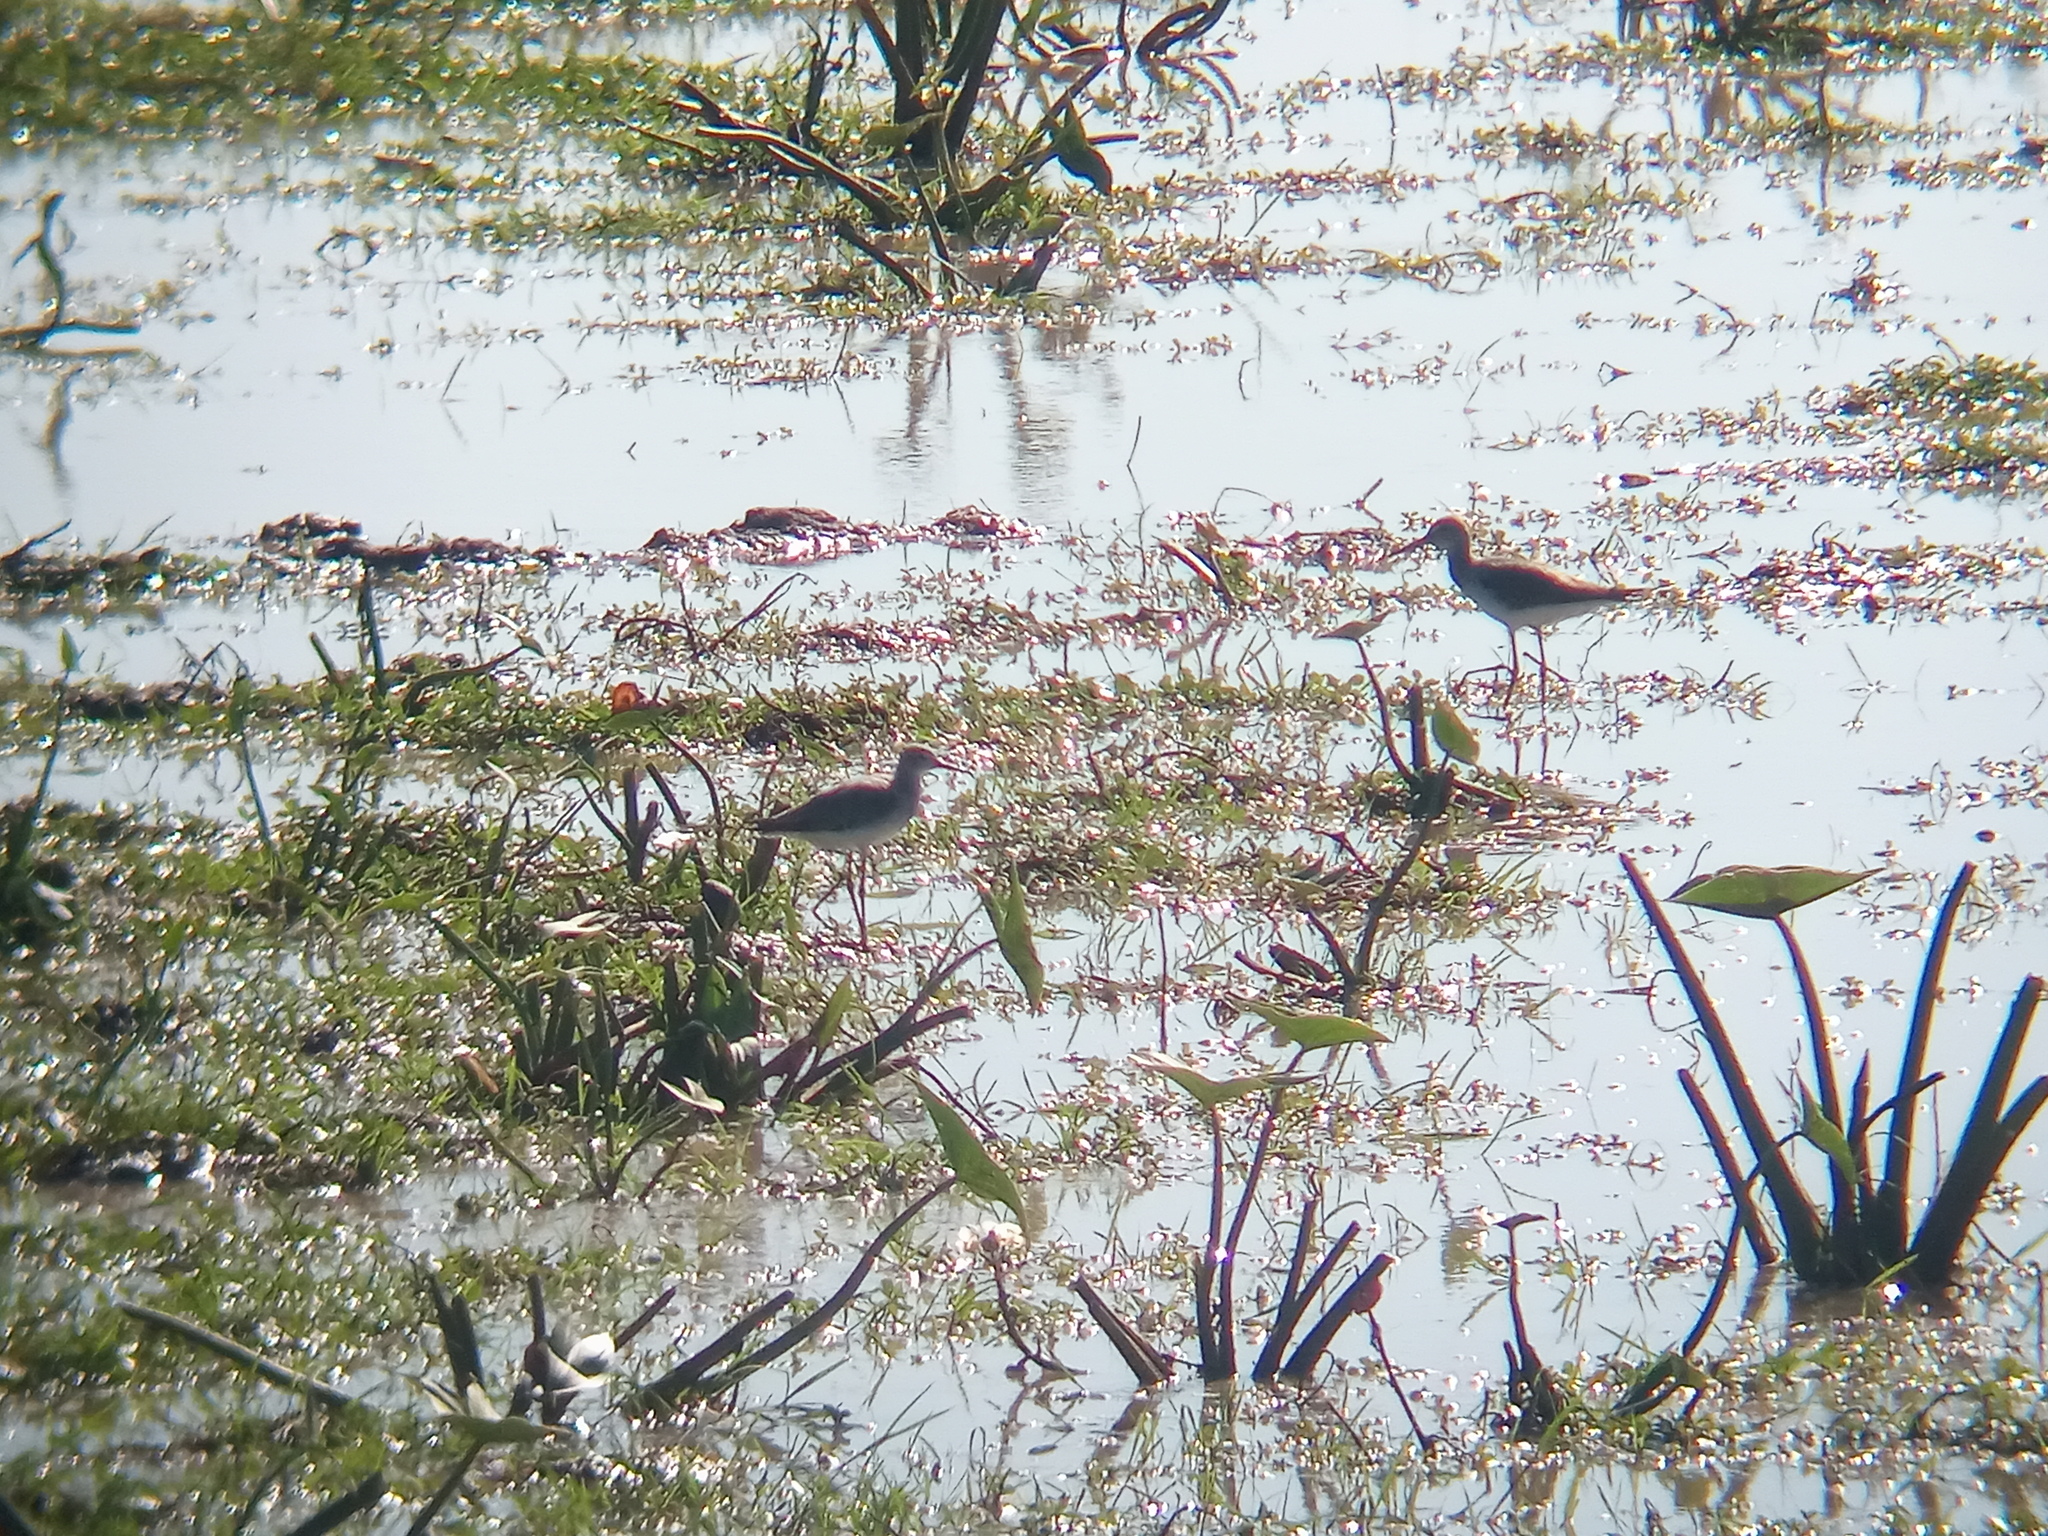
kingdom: Animalia
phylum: Chordata
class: Aves
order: Charadriiformes
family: Scolopacidae
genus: Tringa
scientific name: Tringa flavipes
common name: Lesser yellowlegs
